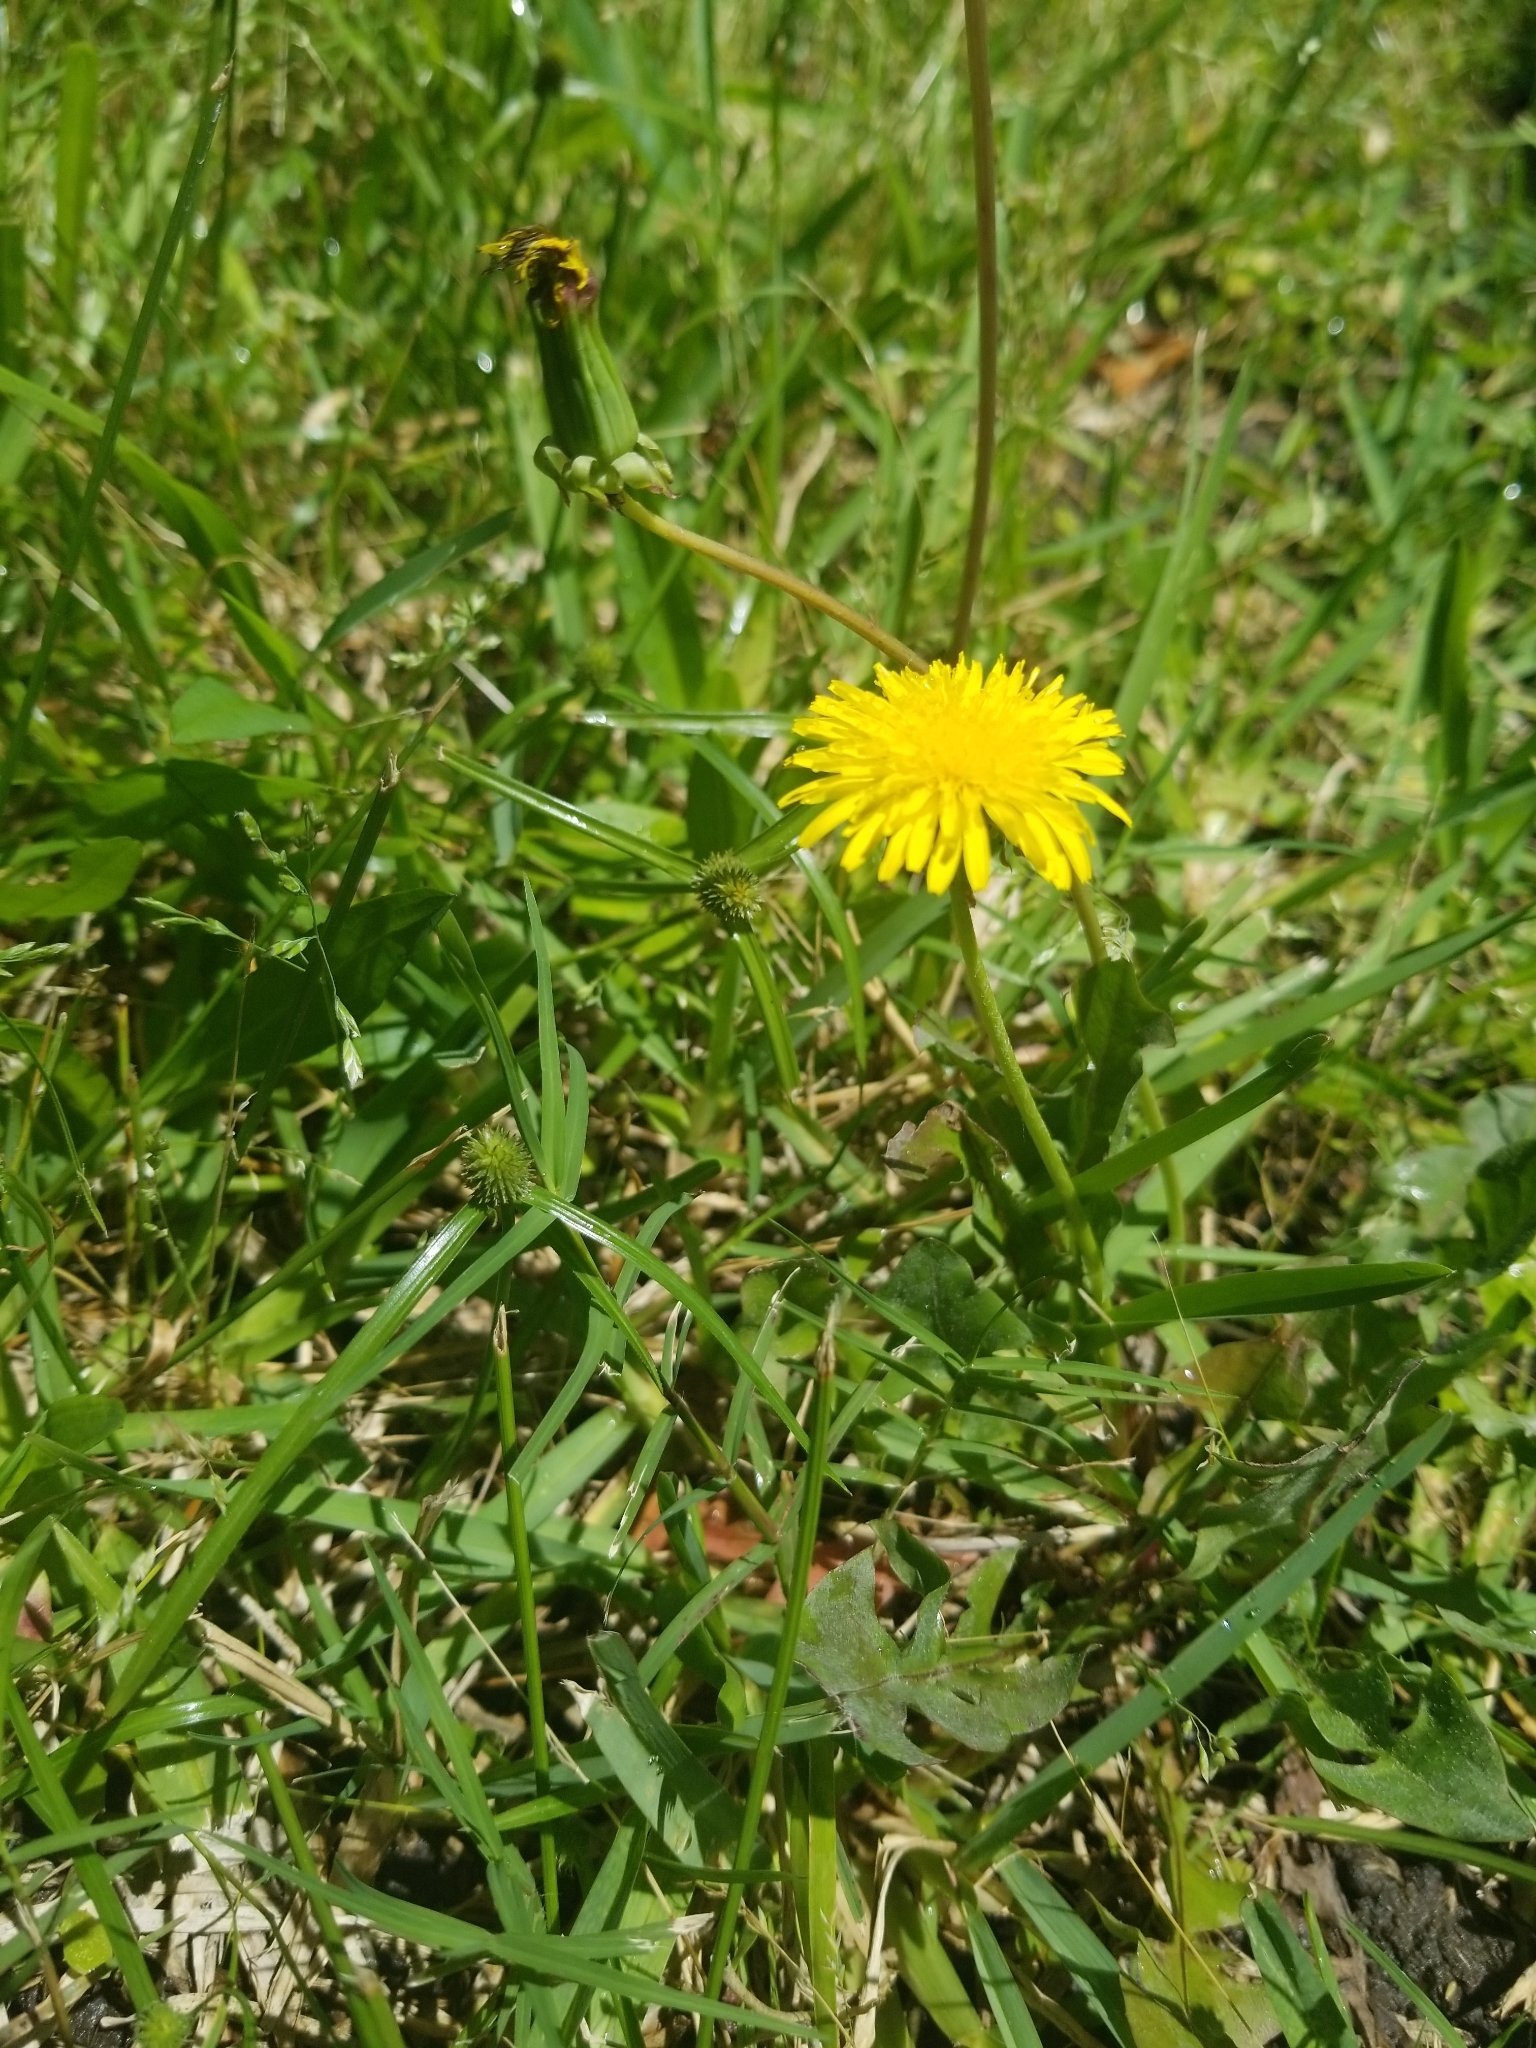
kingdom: Plantae
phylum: Tracheophyta
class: Magnoliopsida
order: Asterales
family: Asteraceae
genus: Taraxacum
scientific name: Taraxacum officinale
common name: Common dandelion
